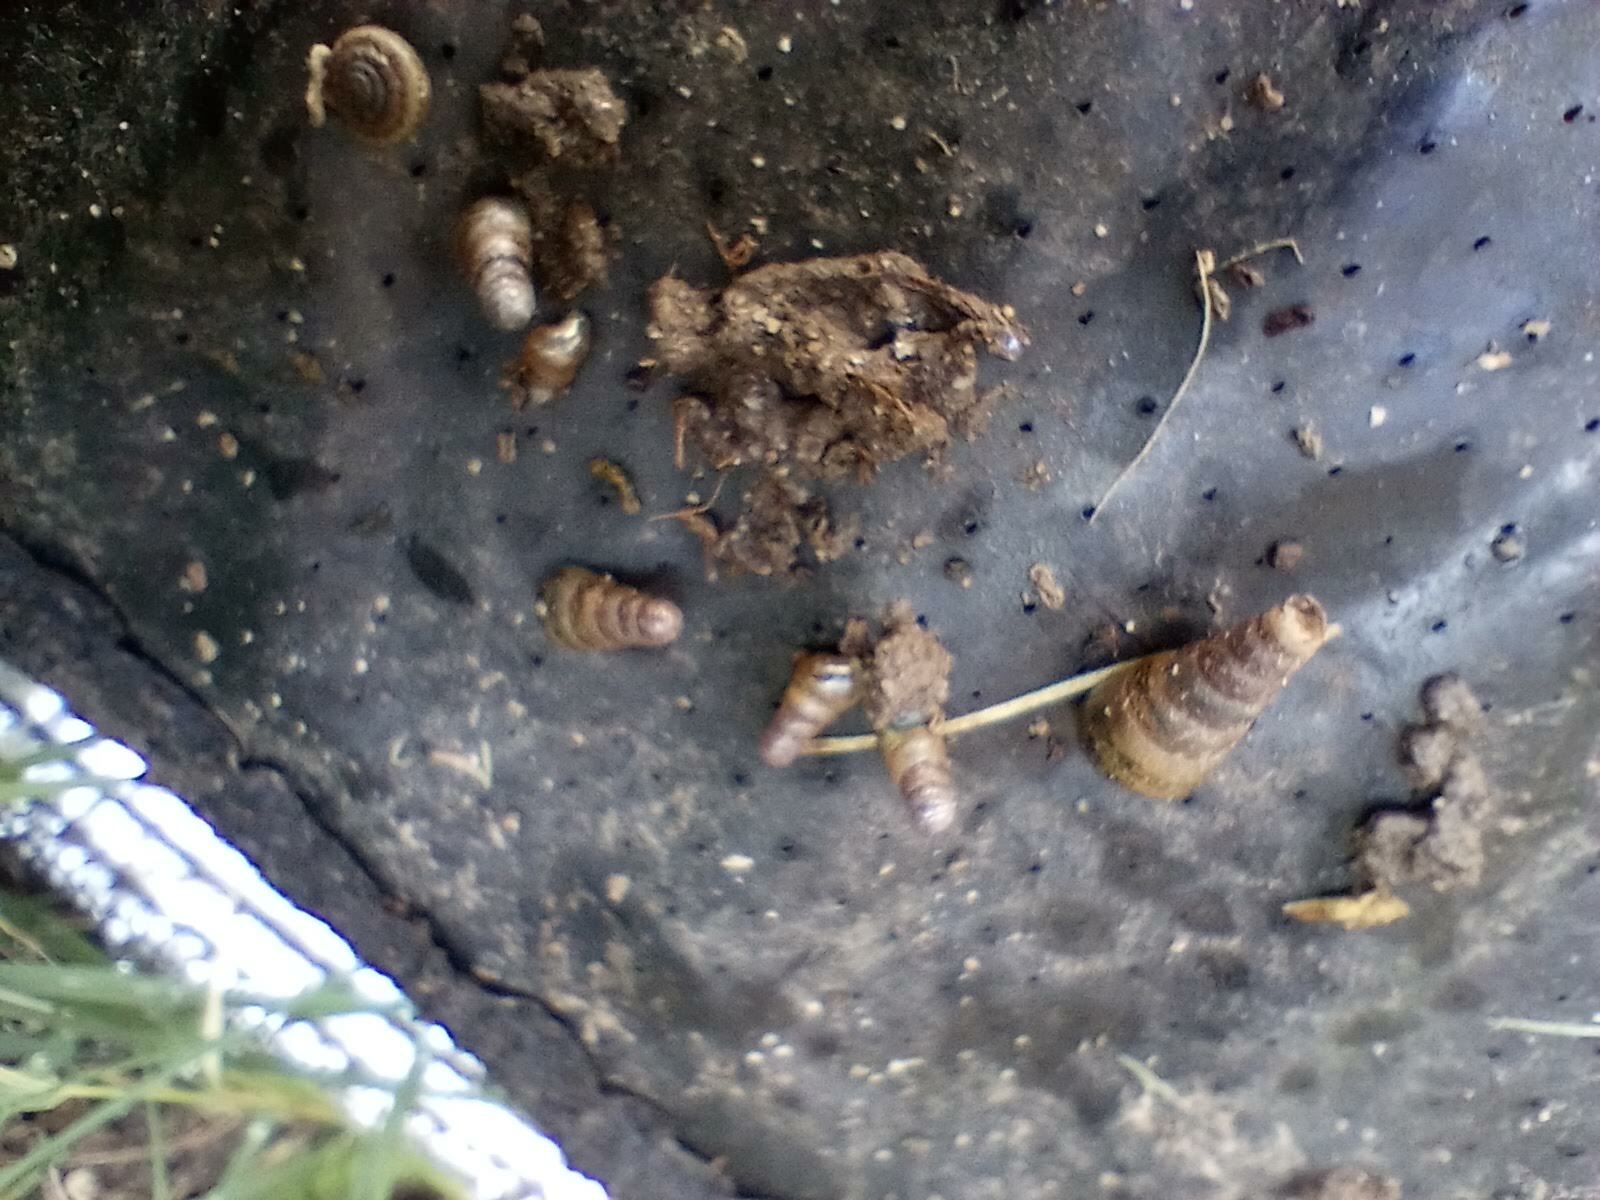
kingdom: Animalia
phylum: Mollusca
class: Gastropoda
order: Stylommatophora
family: Achatinidae
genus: Rumina
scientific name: Rumina decollata
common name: Decollate snail
